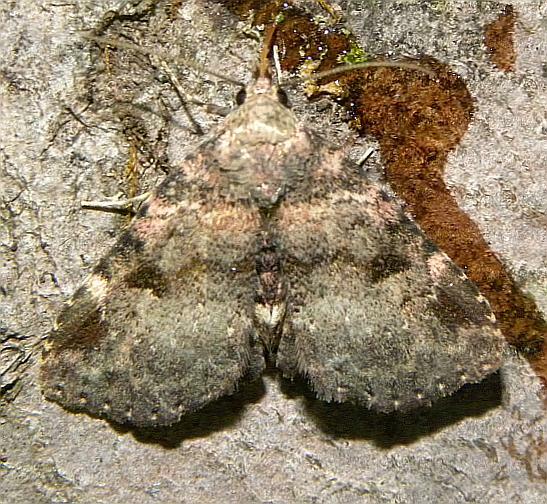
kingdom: Animalia
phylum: Arthropoda
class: Insecta
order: Lepidoptera
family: Erebidae
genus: Metalectra
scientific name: Metalectra quadrisignata
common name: Four-spotted fungus moth
